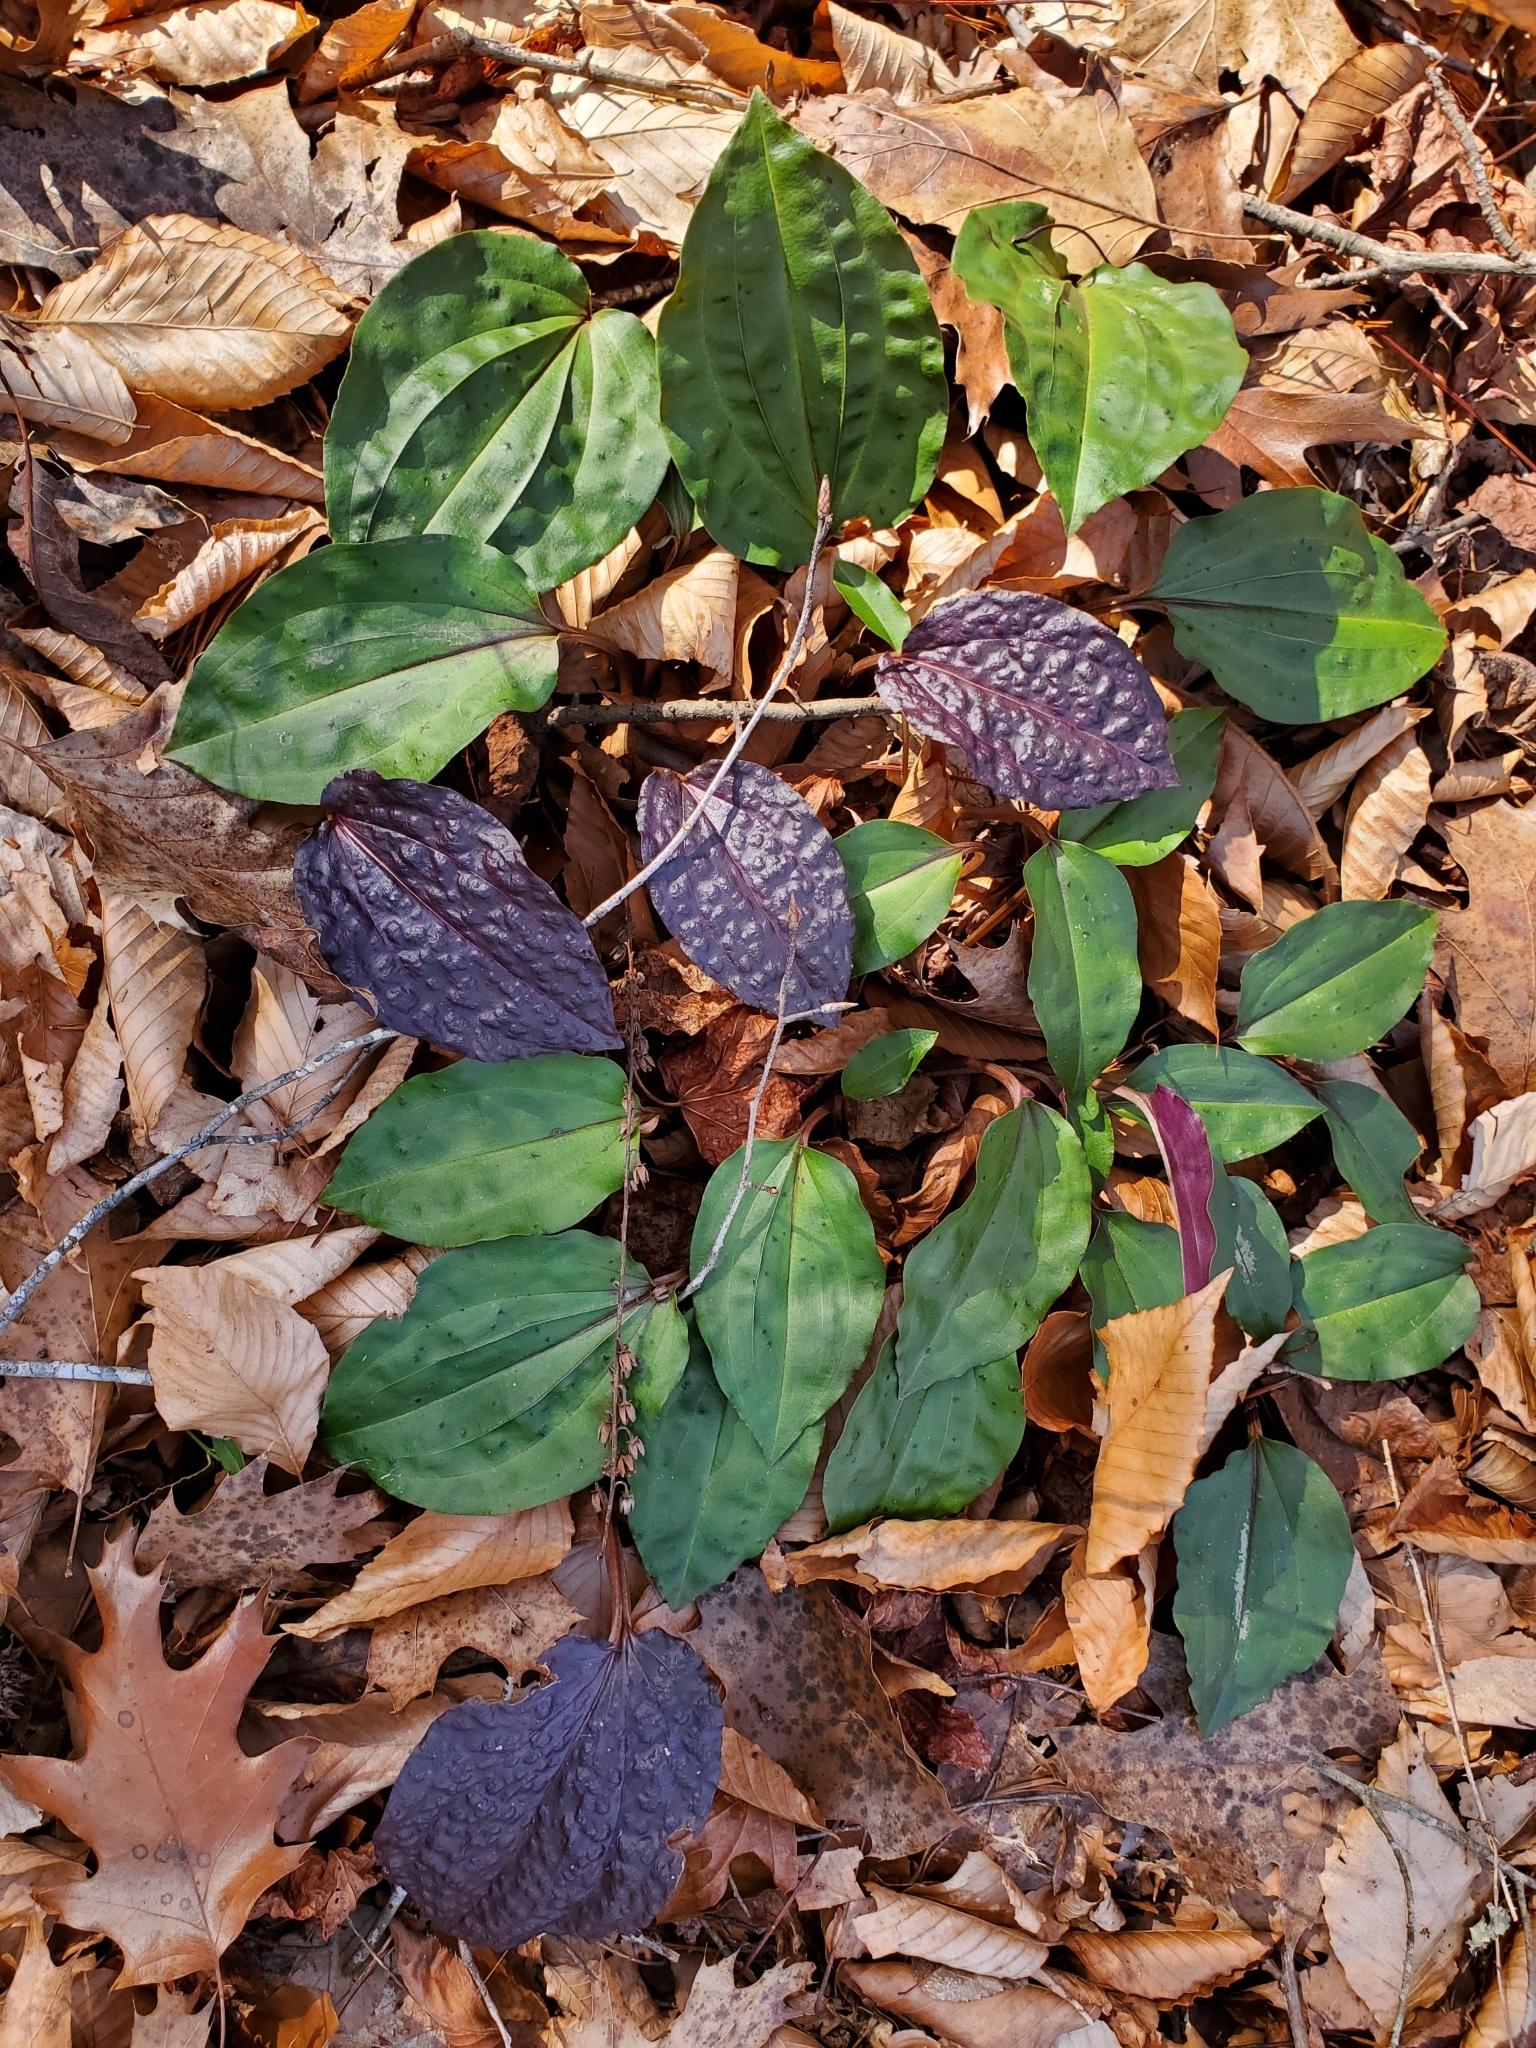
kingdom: Plantae
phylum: Tracheophyta
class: Liliopsida
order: Asparagales
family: Orchidaceae
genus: Tipularia
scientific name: Tipularia discolor
